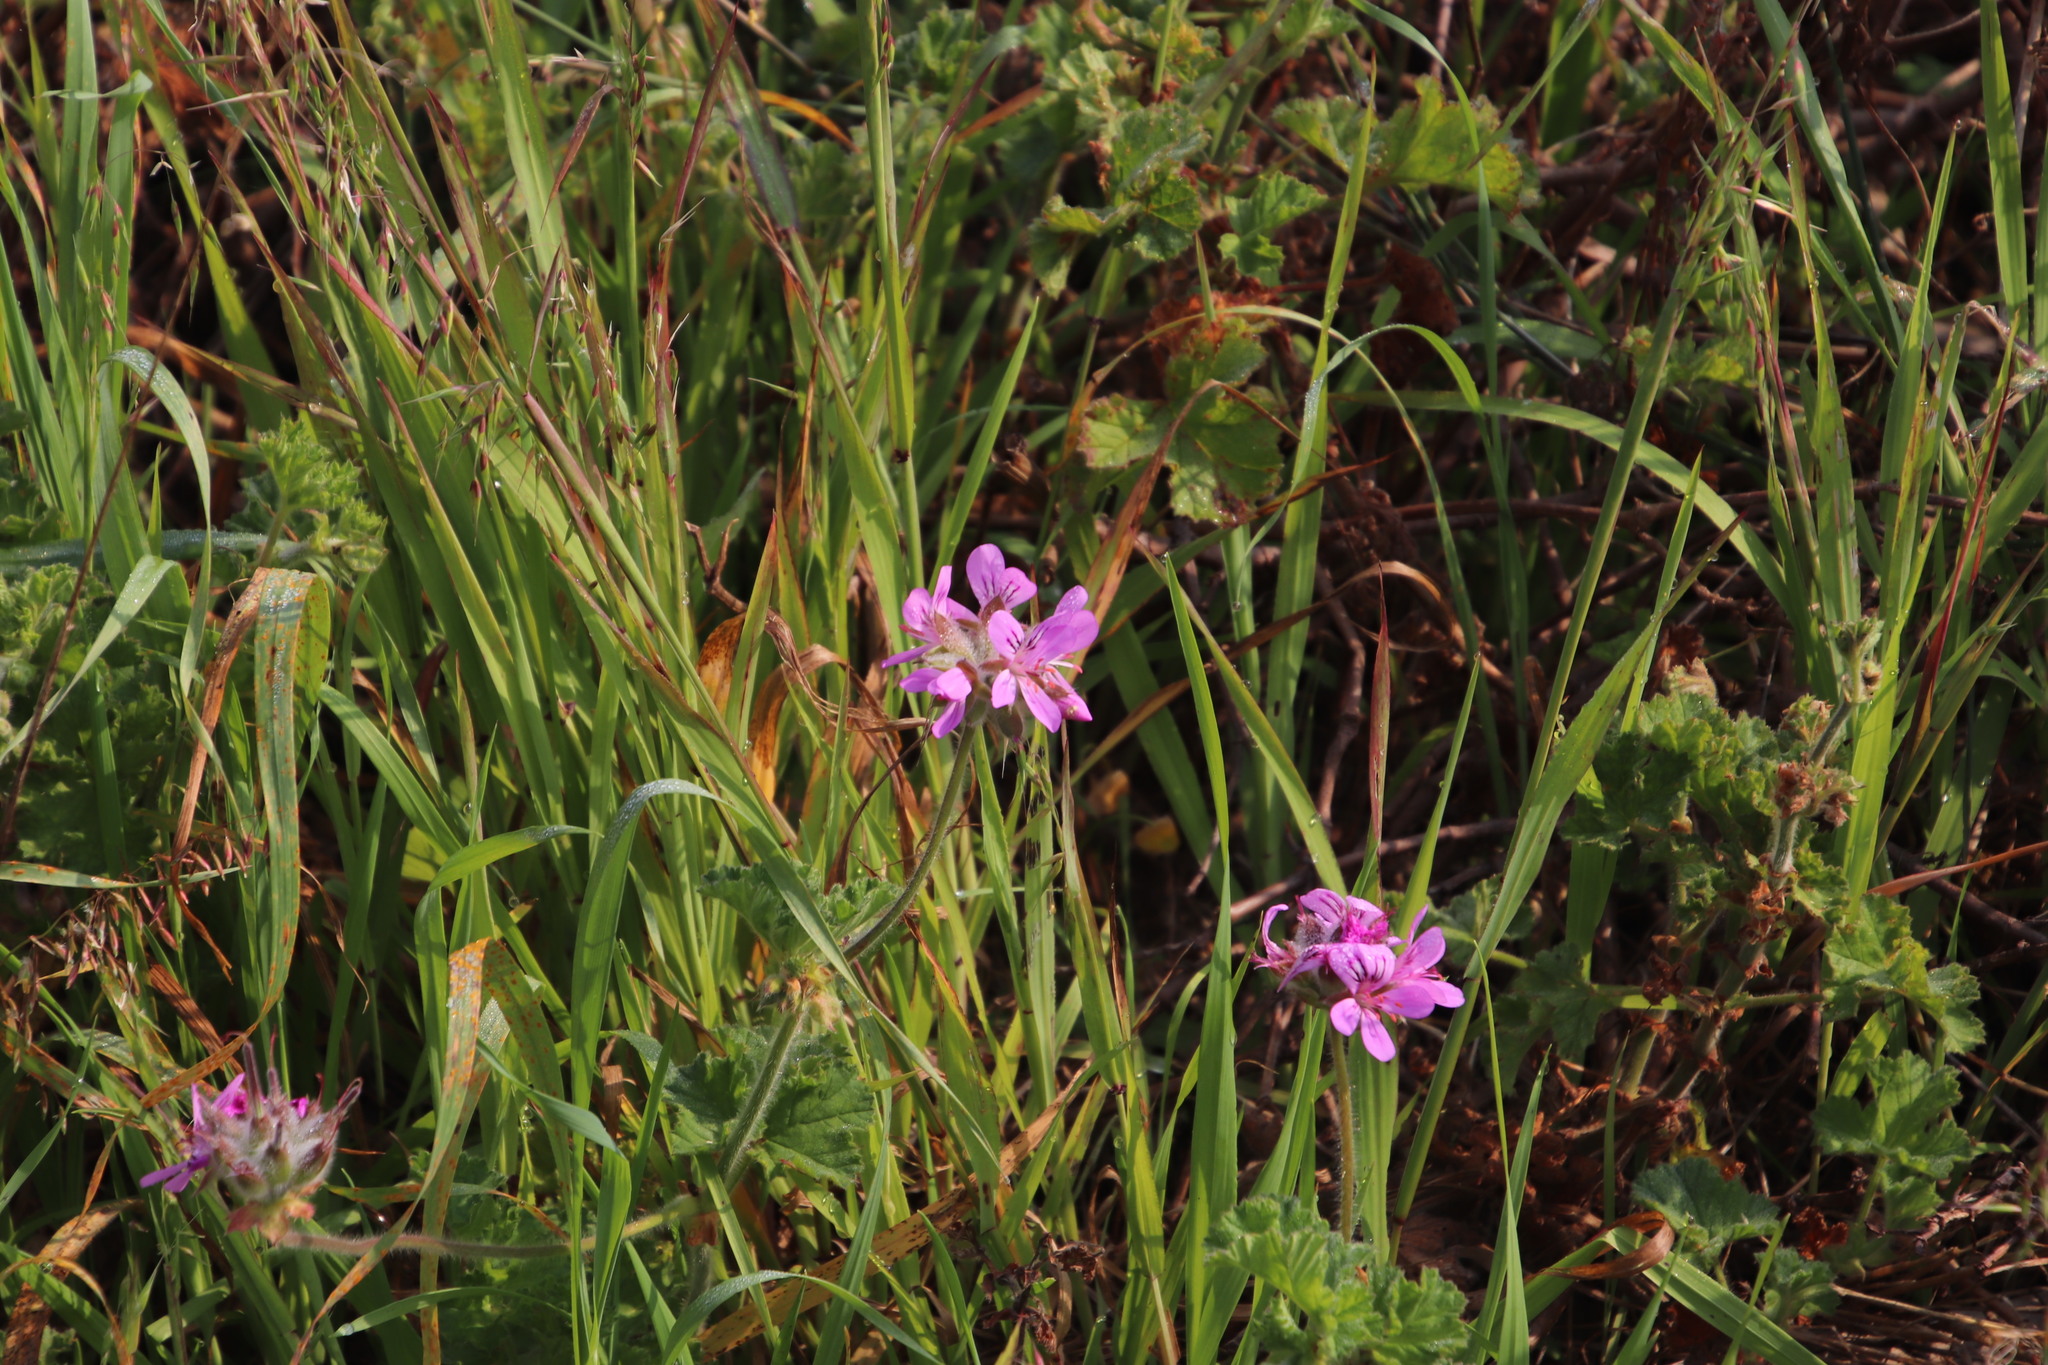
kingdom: Plantae
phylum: Tracheophyta
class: Magnoliopsida
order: Geraniales
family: Geraniaceae
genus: Pelargonium
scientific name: Pelargonium capitatum
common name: Rose scented geranium
